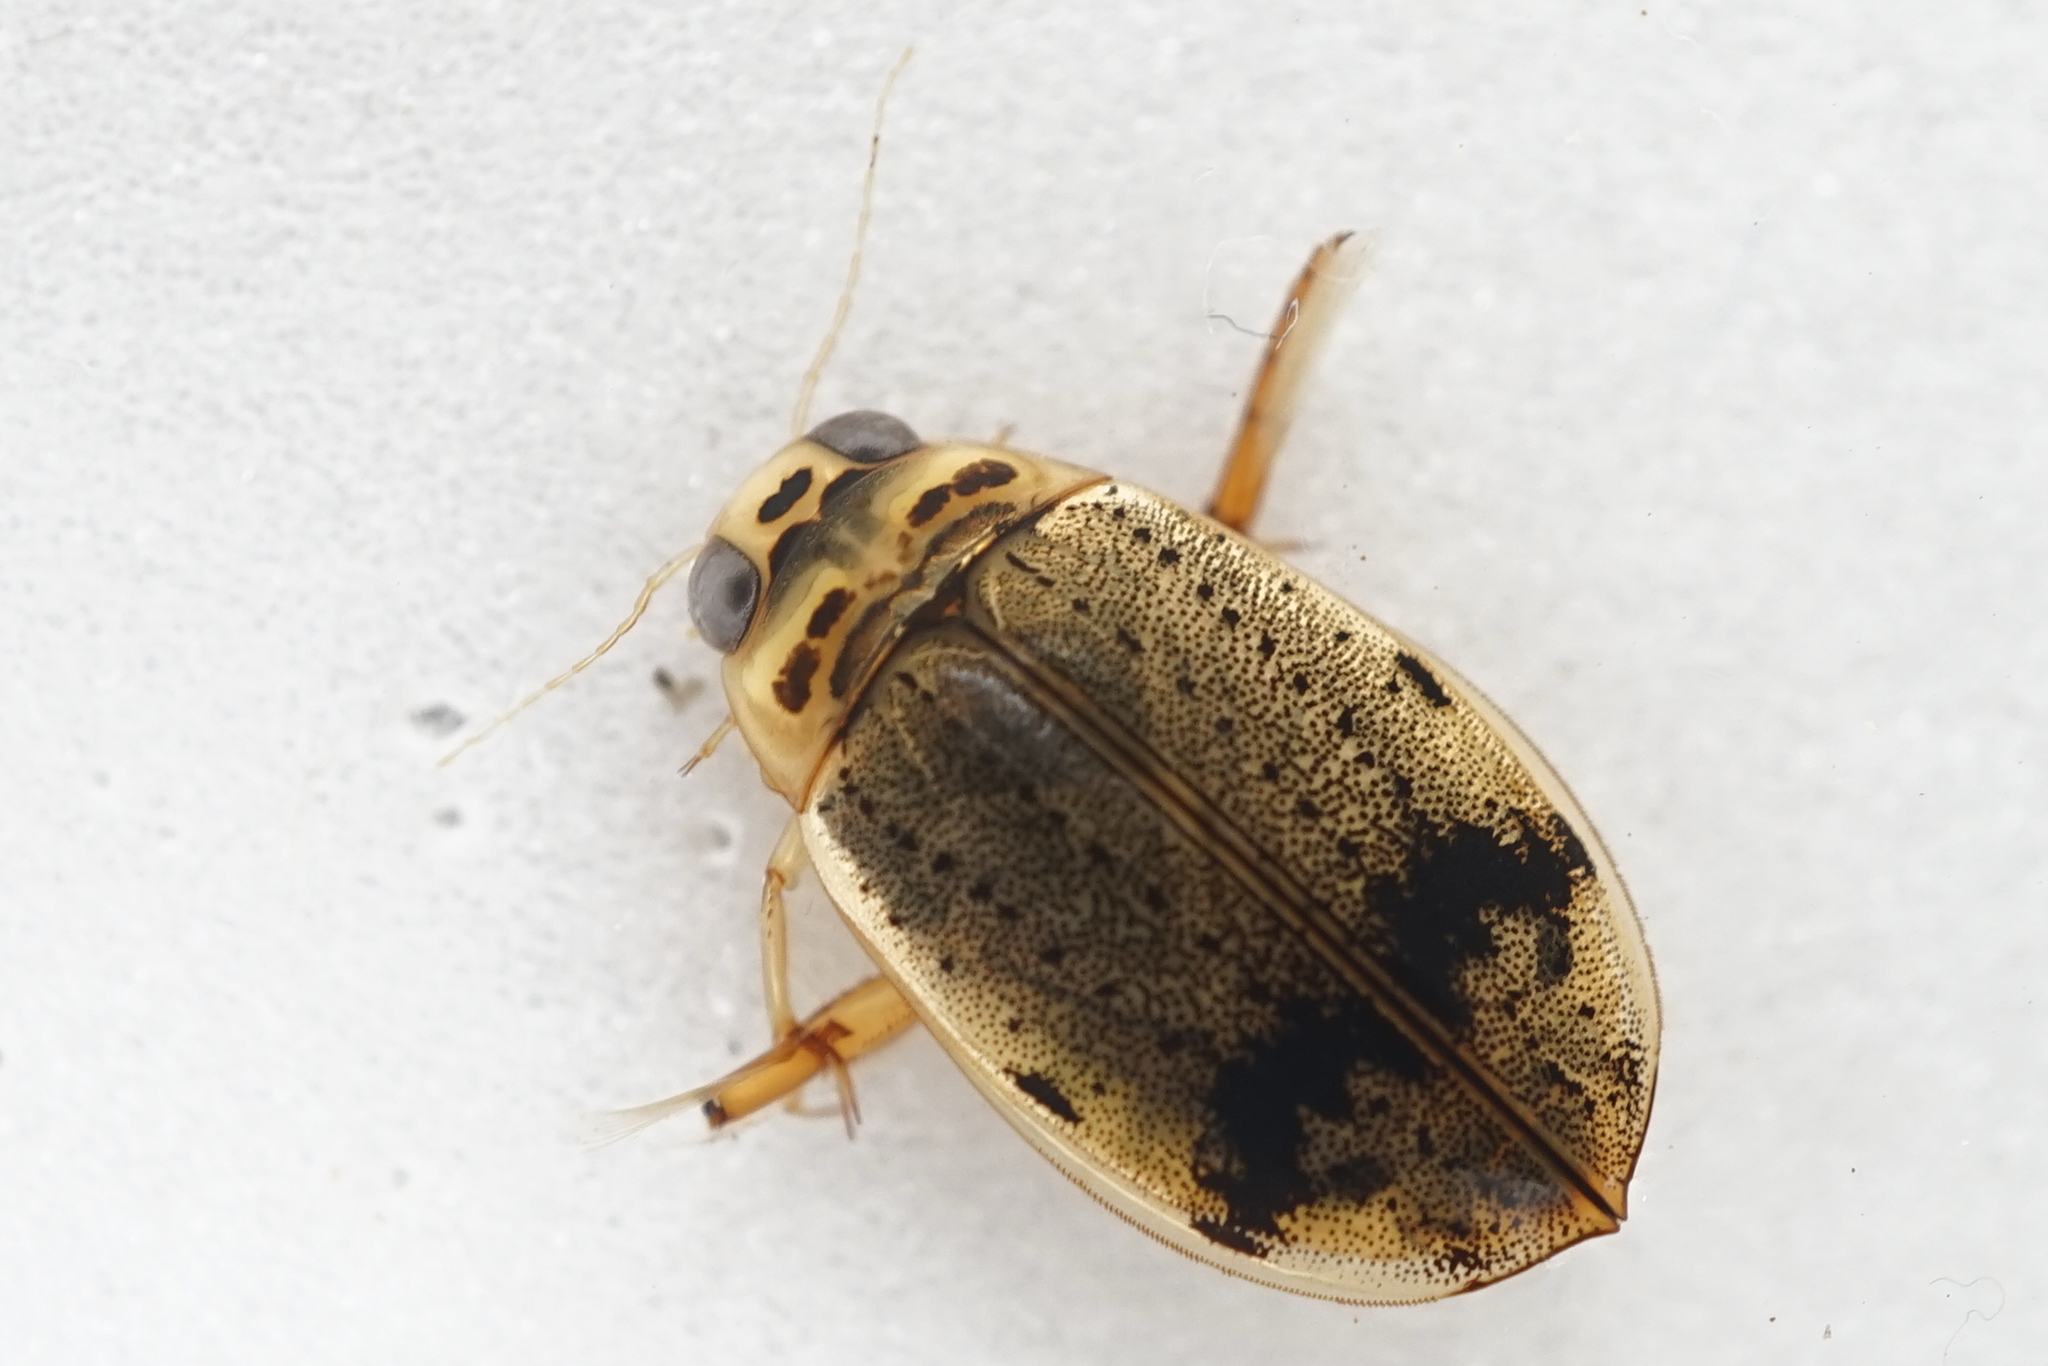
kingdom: Animalia
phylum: Arthropoda
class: Insecta
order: Coleoptera
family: Dytiscidae
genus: Eretes
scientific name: Eretes griseus
